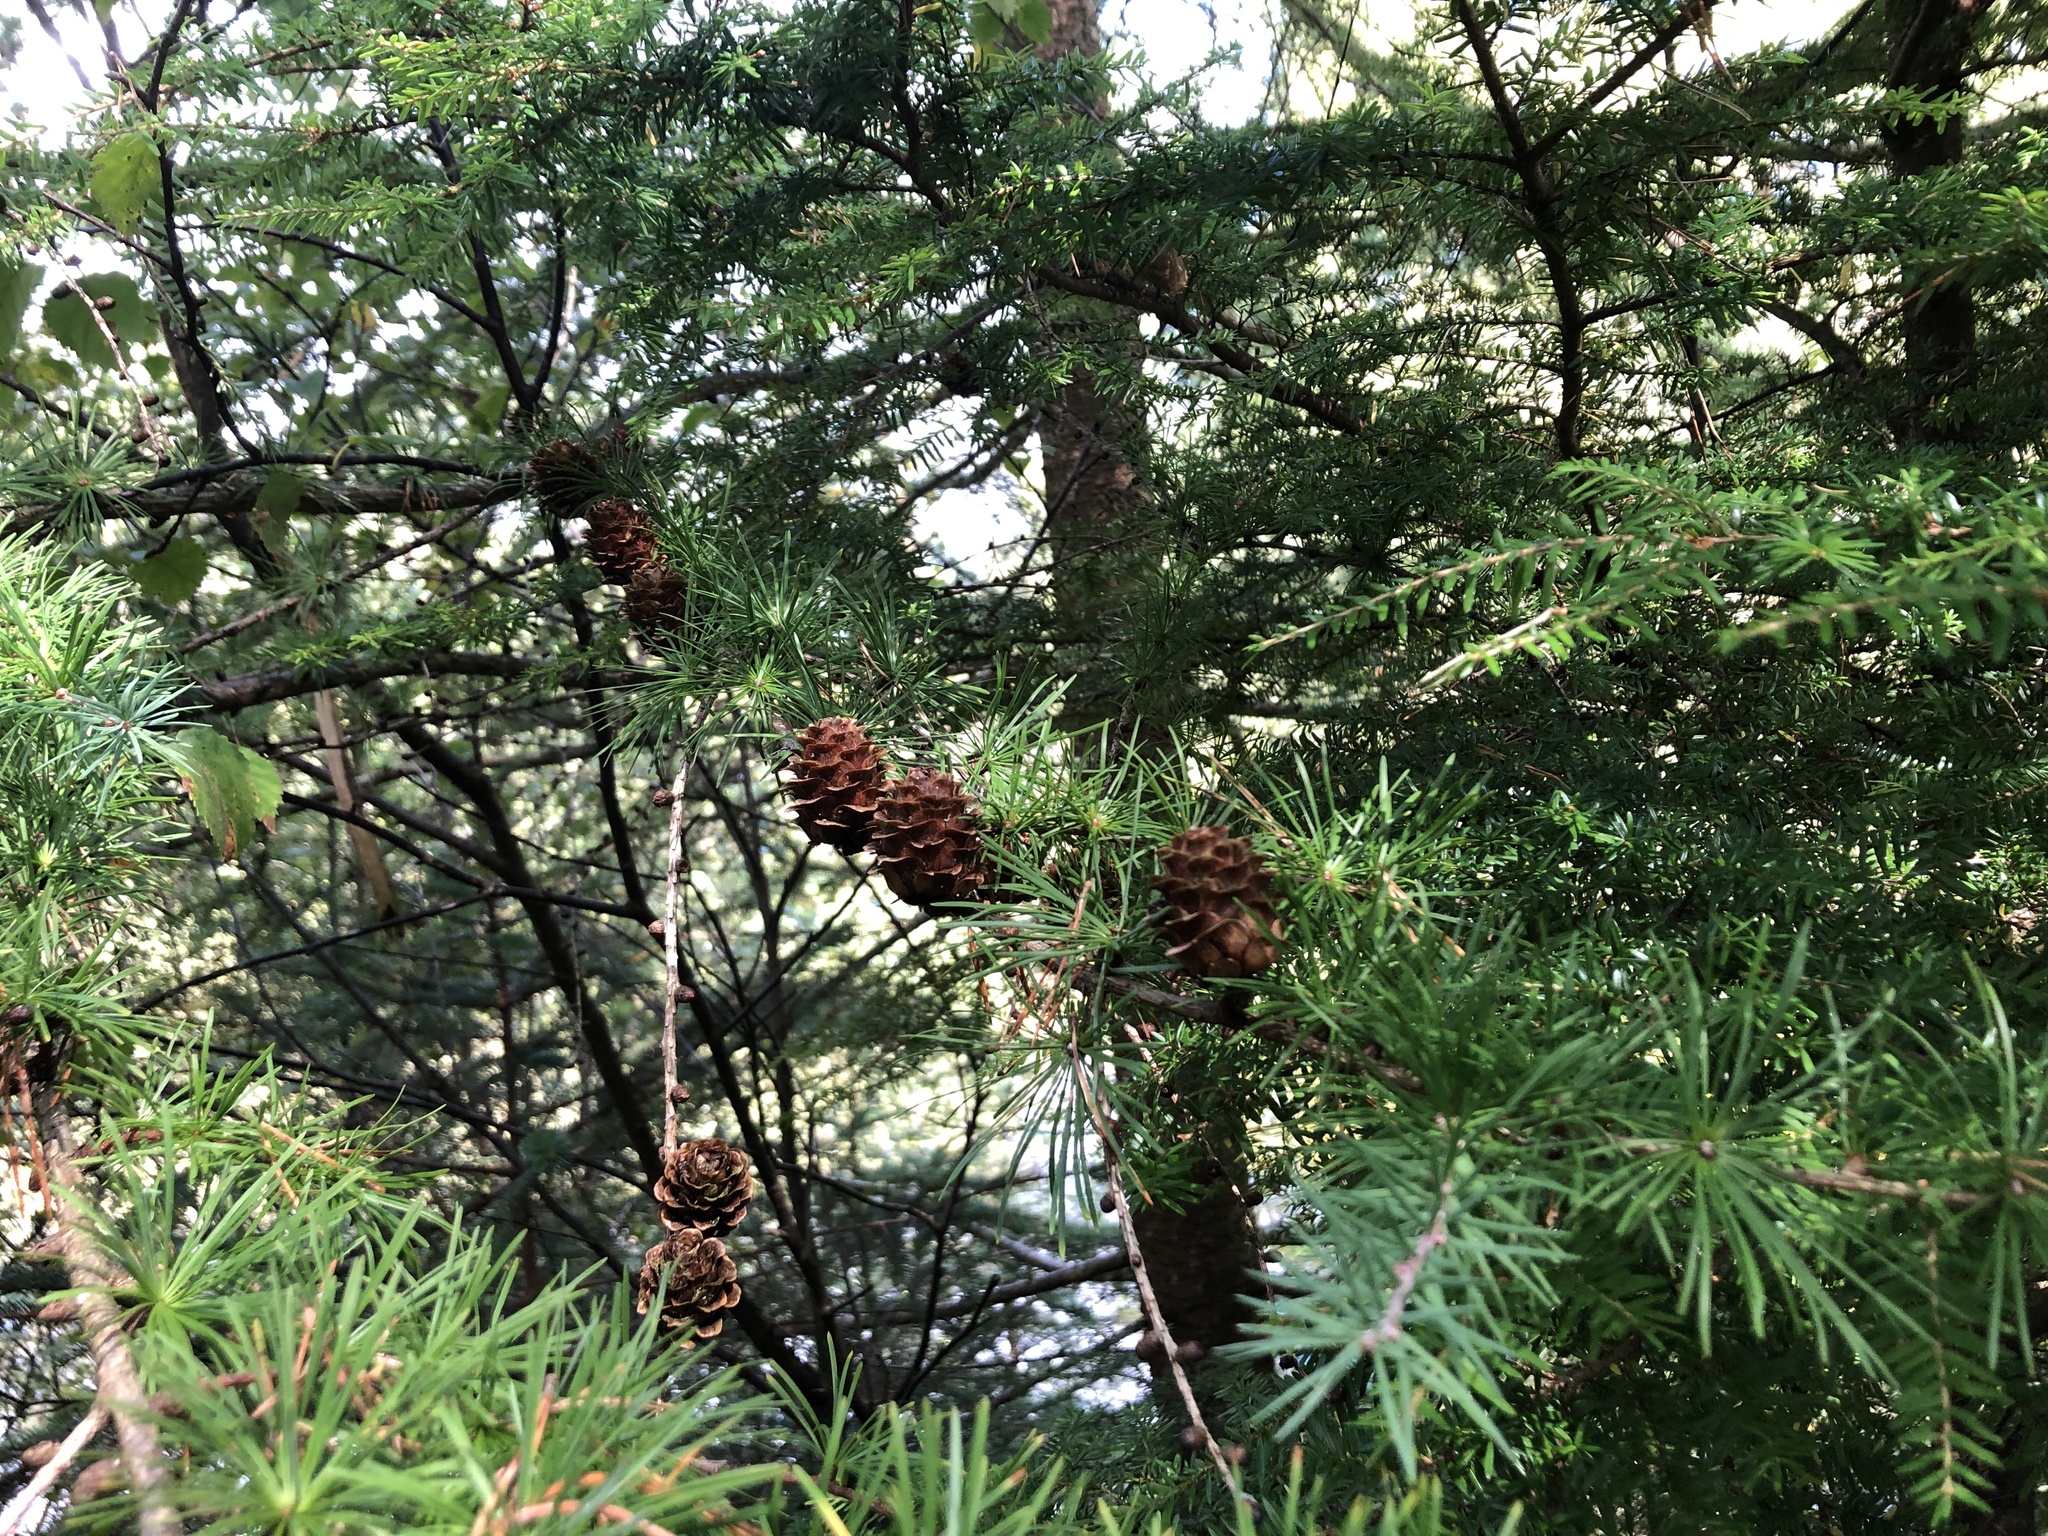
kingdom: Plantae
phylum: Tracheophyta
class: Pinopsida
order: Pinales
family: Pinaceae
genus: Larix
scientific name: Larix kaempferi
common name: Japanese larch
